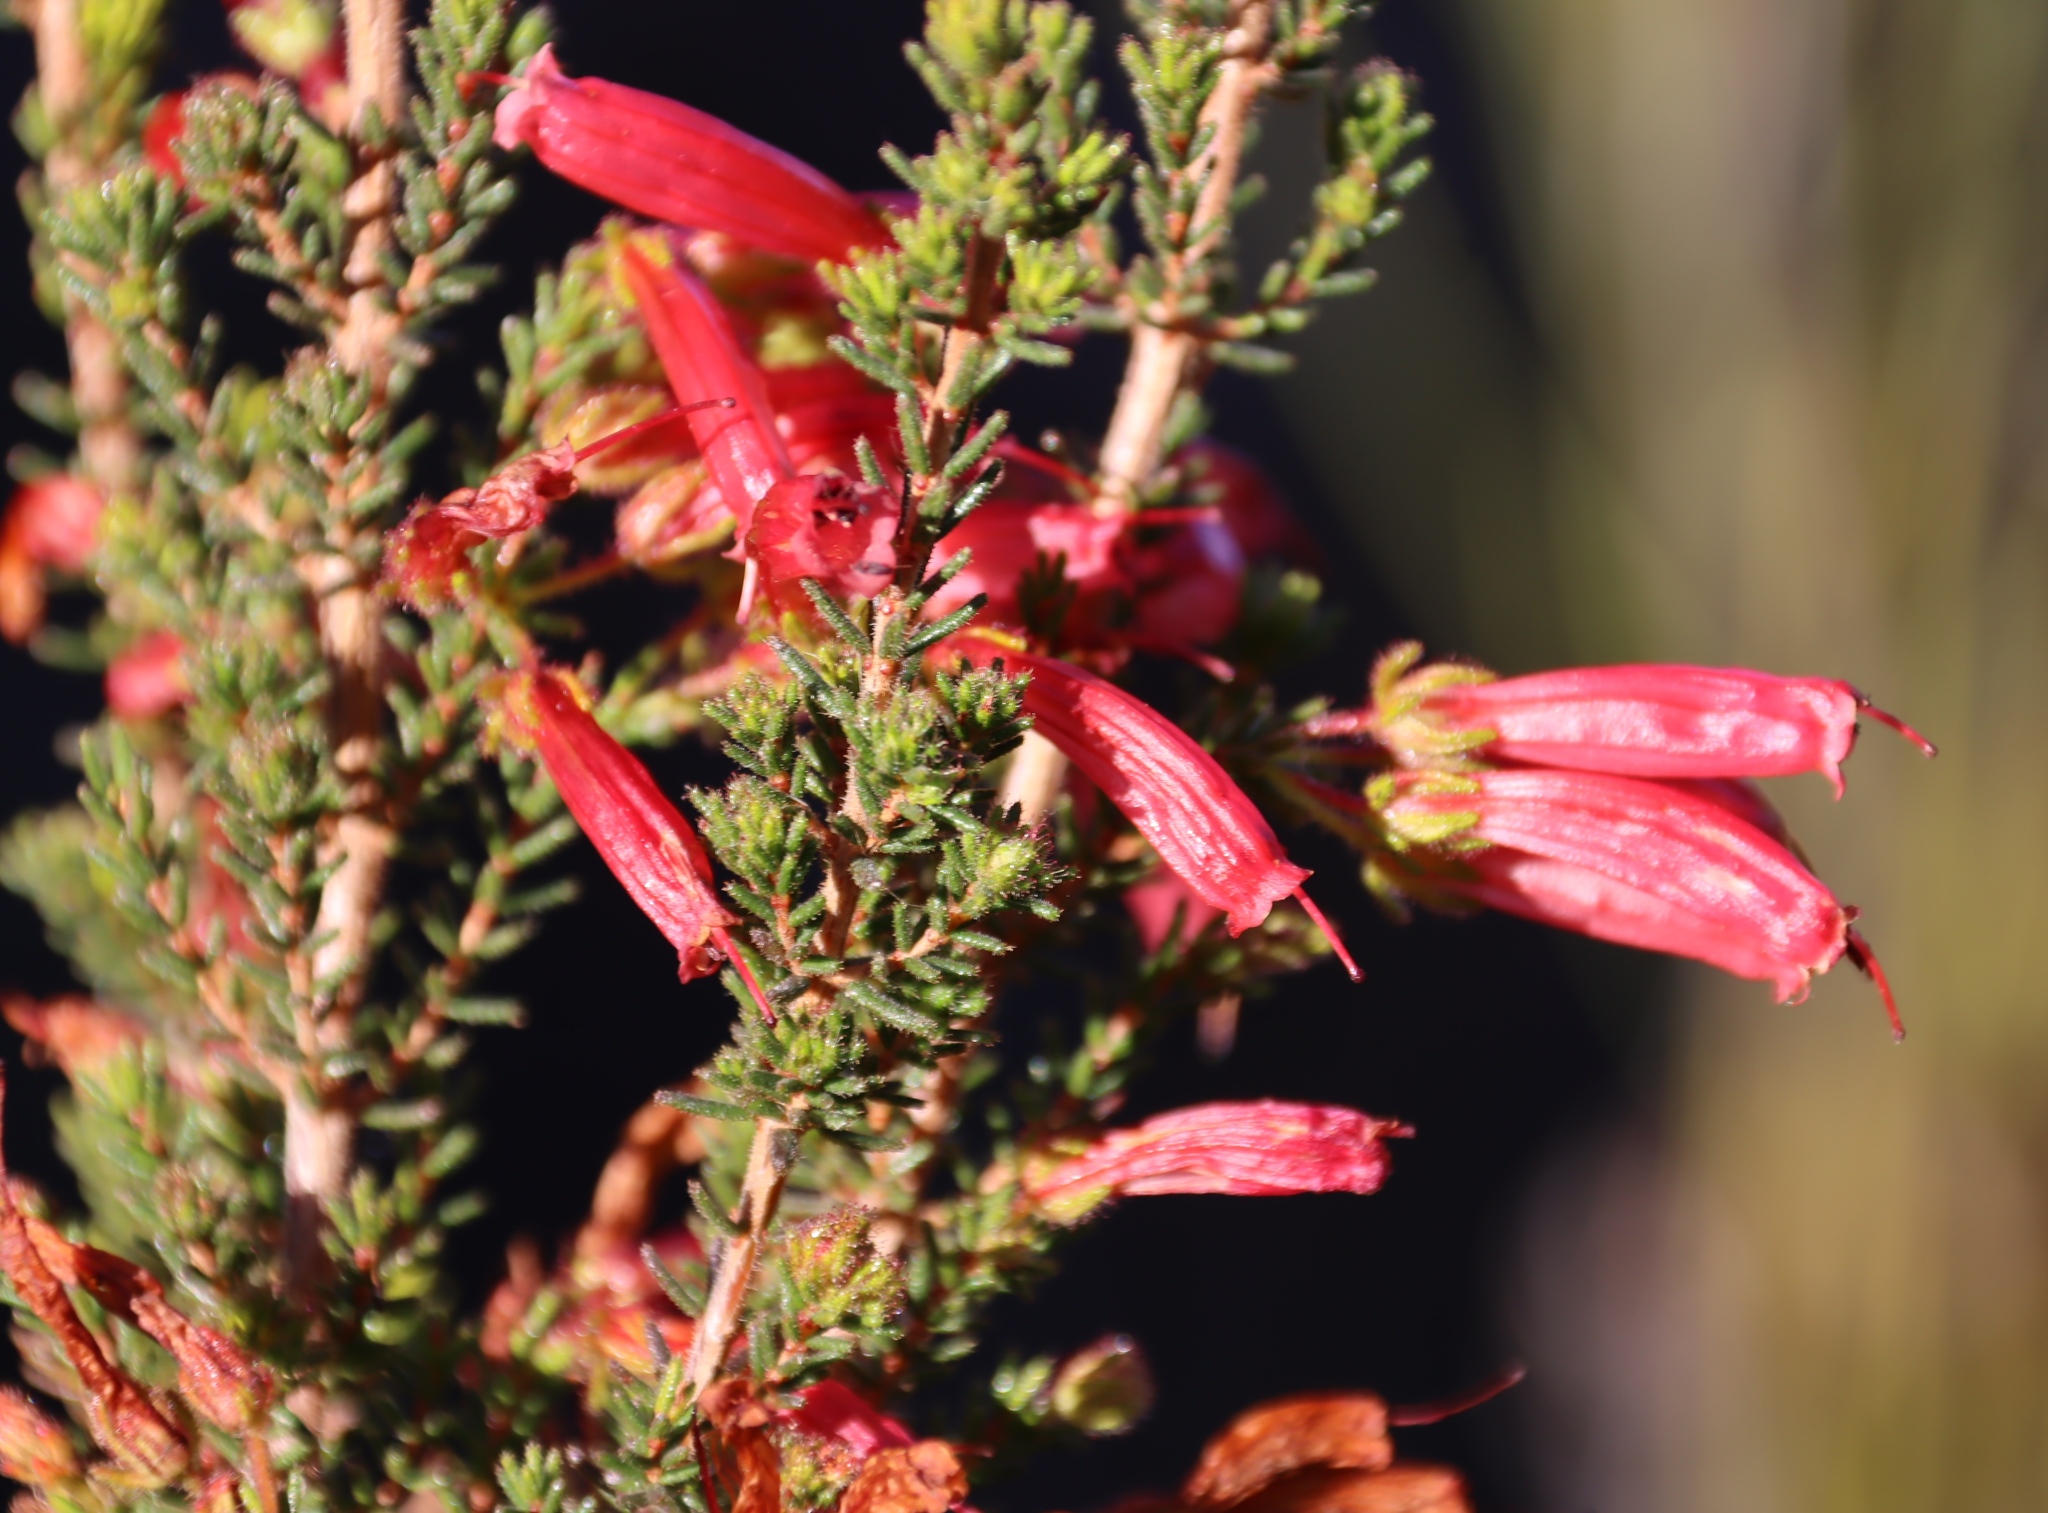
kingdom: Plantae
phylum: Tracheophyta
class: Magnoliopsida
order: Ericales
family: Ericaceae
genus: Erica
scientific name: Erica glandulosa
